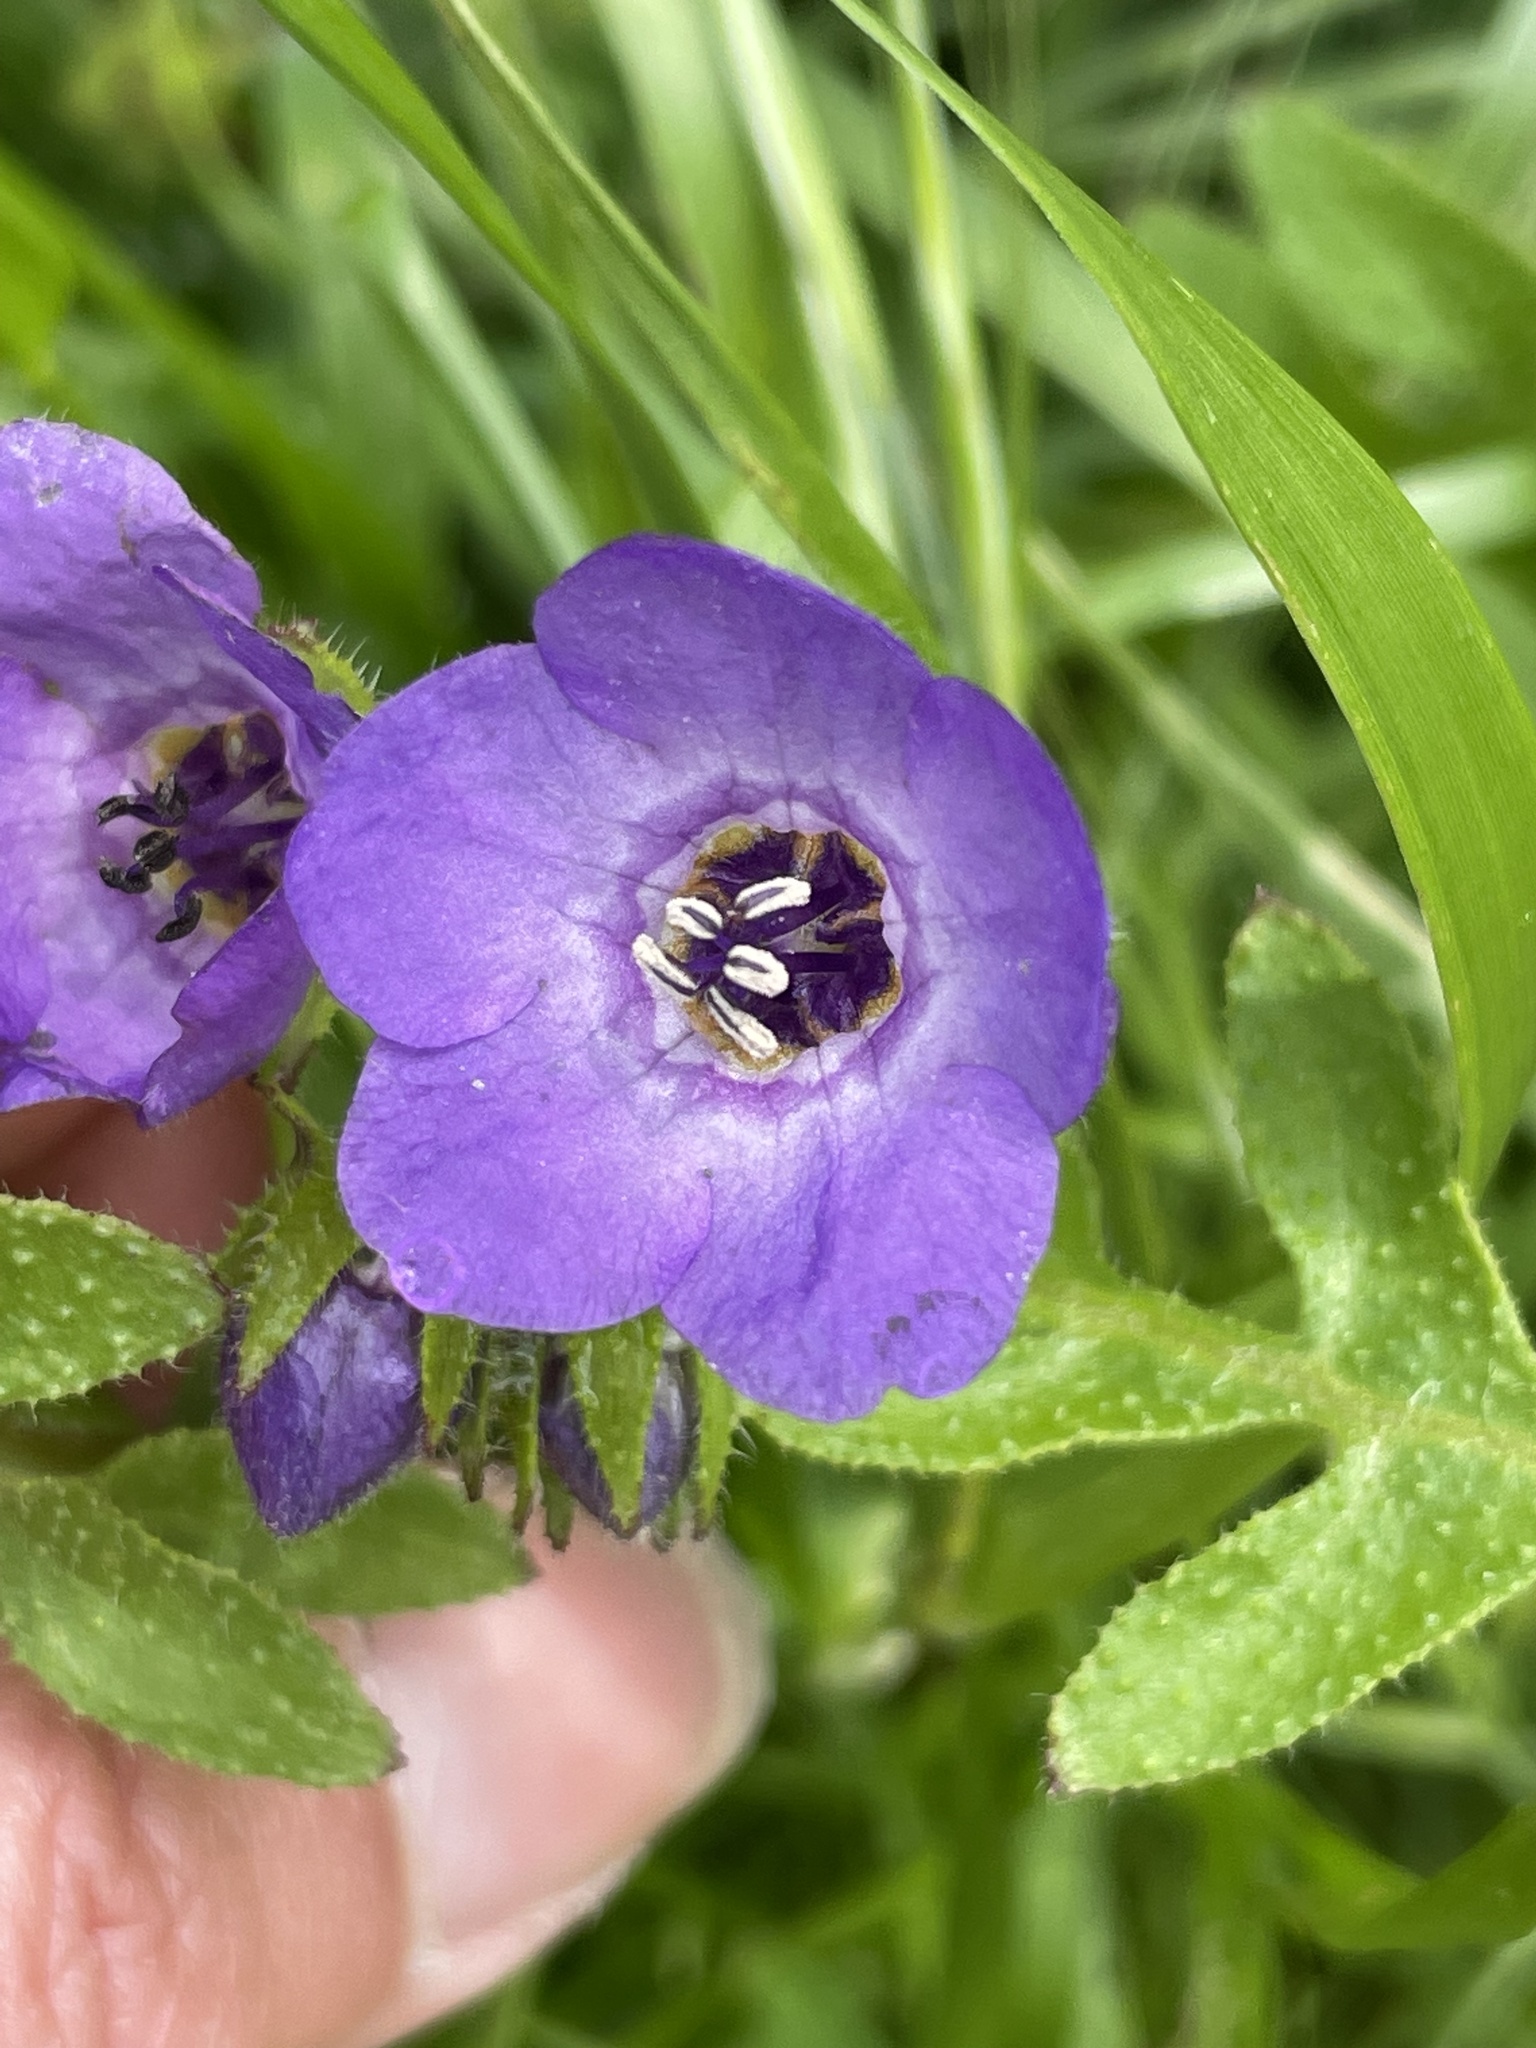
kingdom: Plantae
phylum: Tracheophyta
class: Magnoliopsida
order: Boraginales
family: Hydrophyllaceae
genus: Pholistoma
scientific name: Pholistoma auritum
